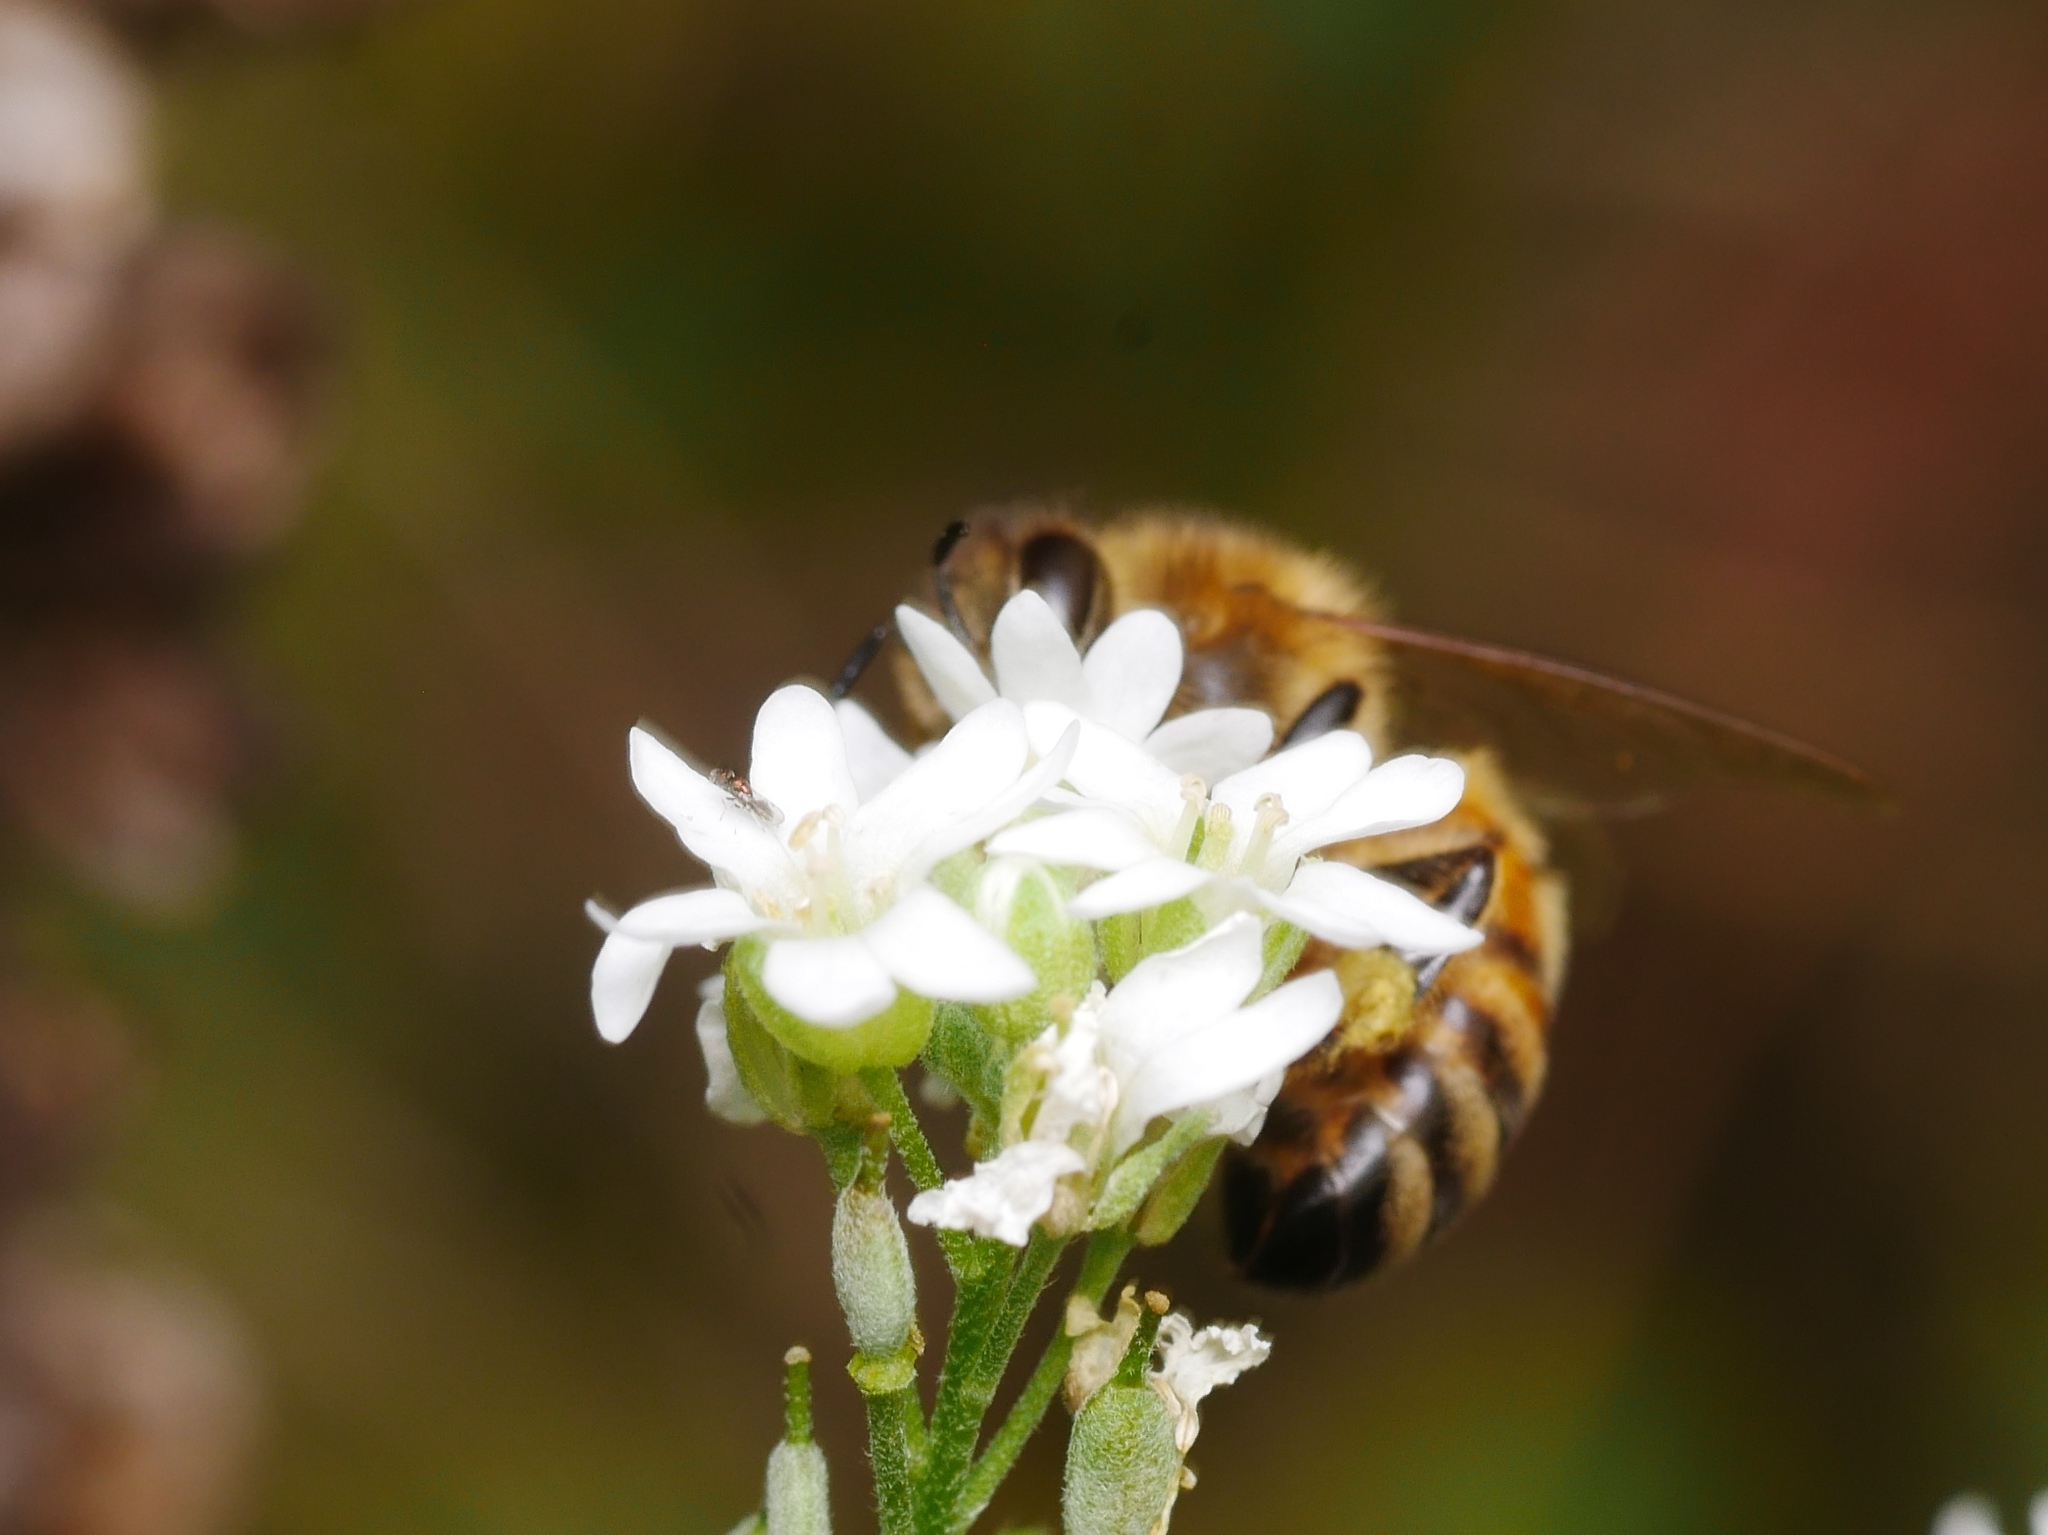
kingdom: Animalia
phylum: Arthropoda
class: Insecta
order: Hymenoptera
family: Apidae
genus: Apis
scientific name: Apis mellifera
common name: Honey bee
